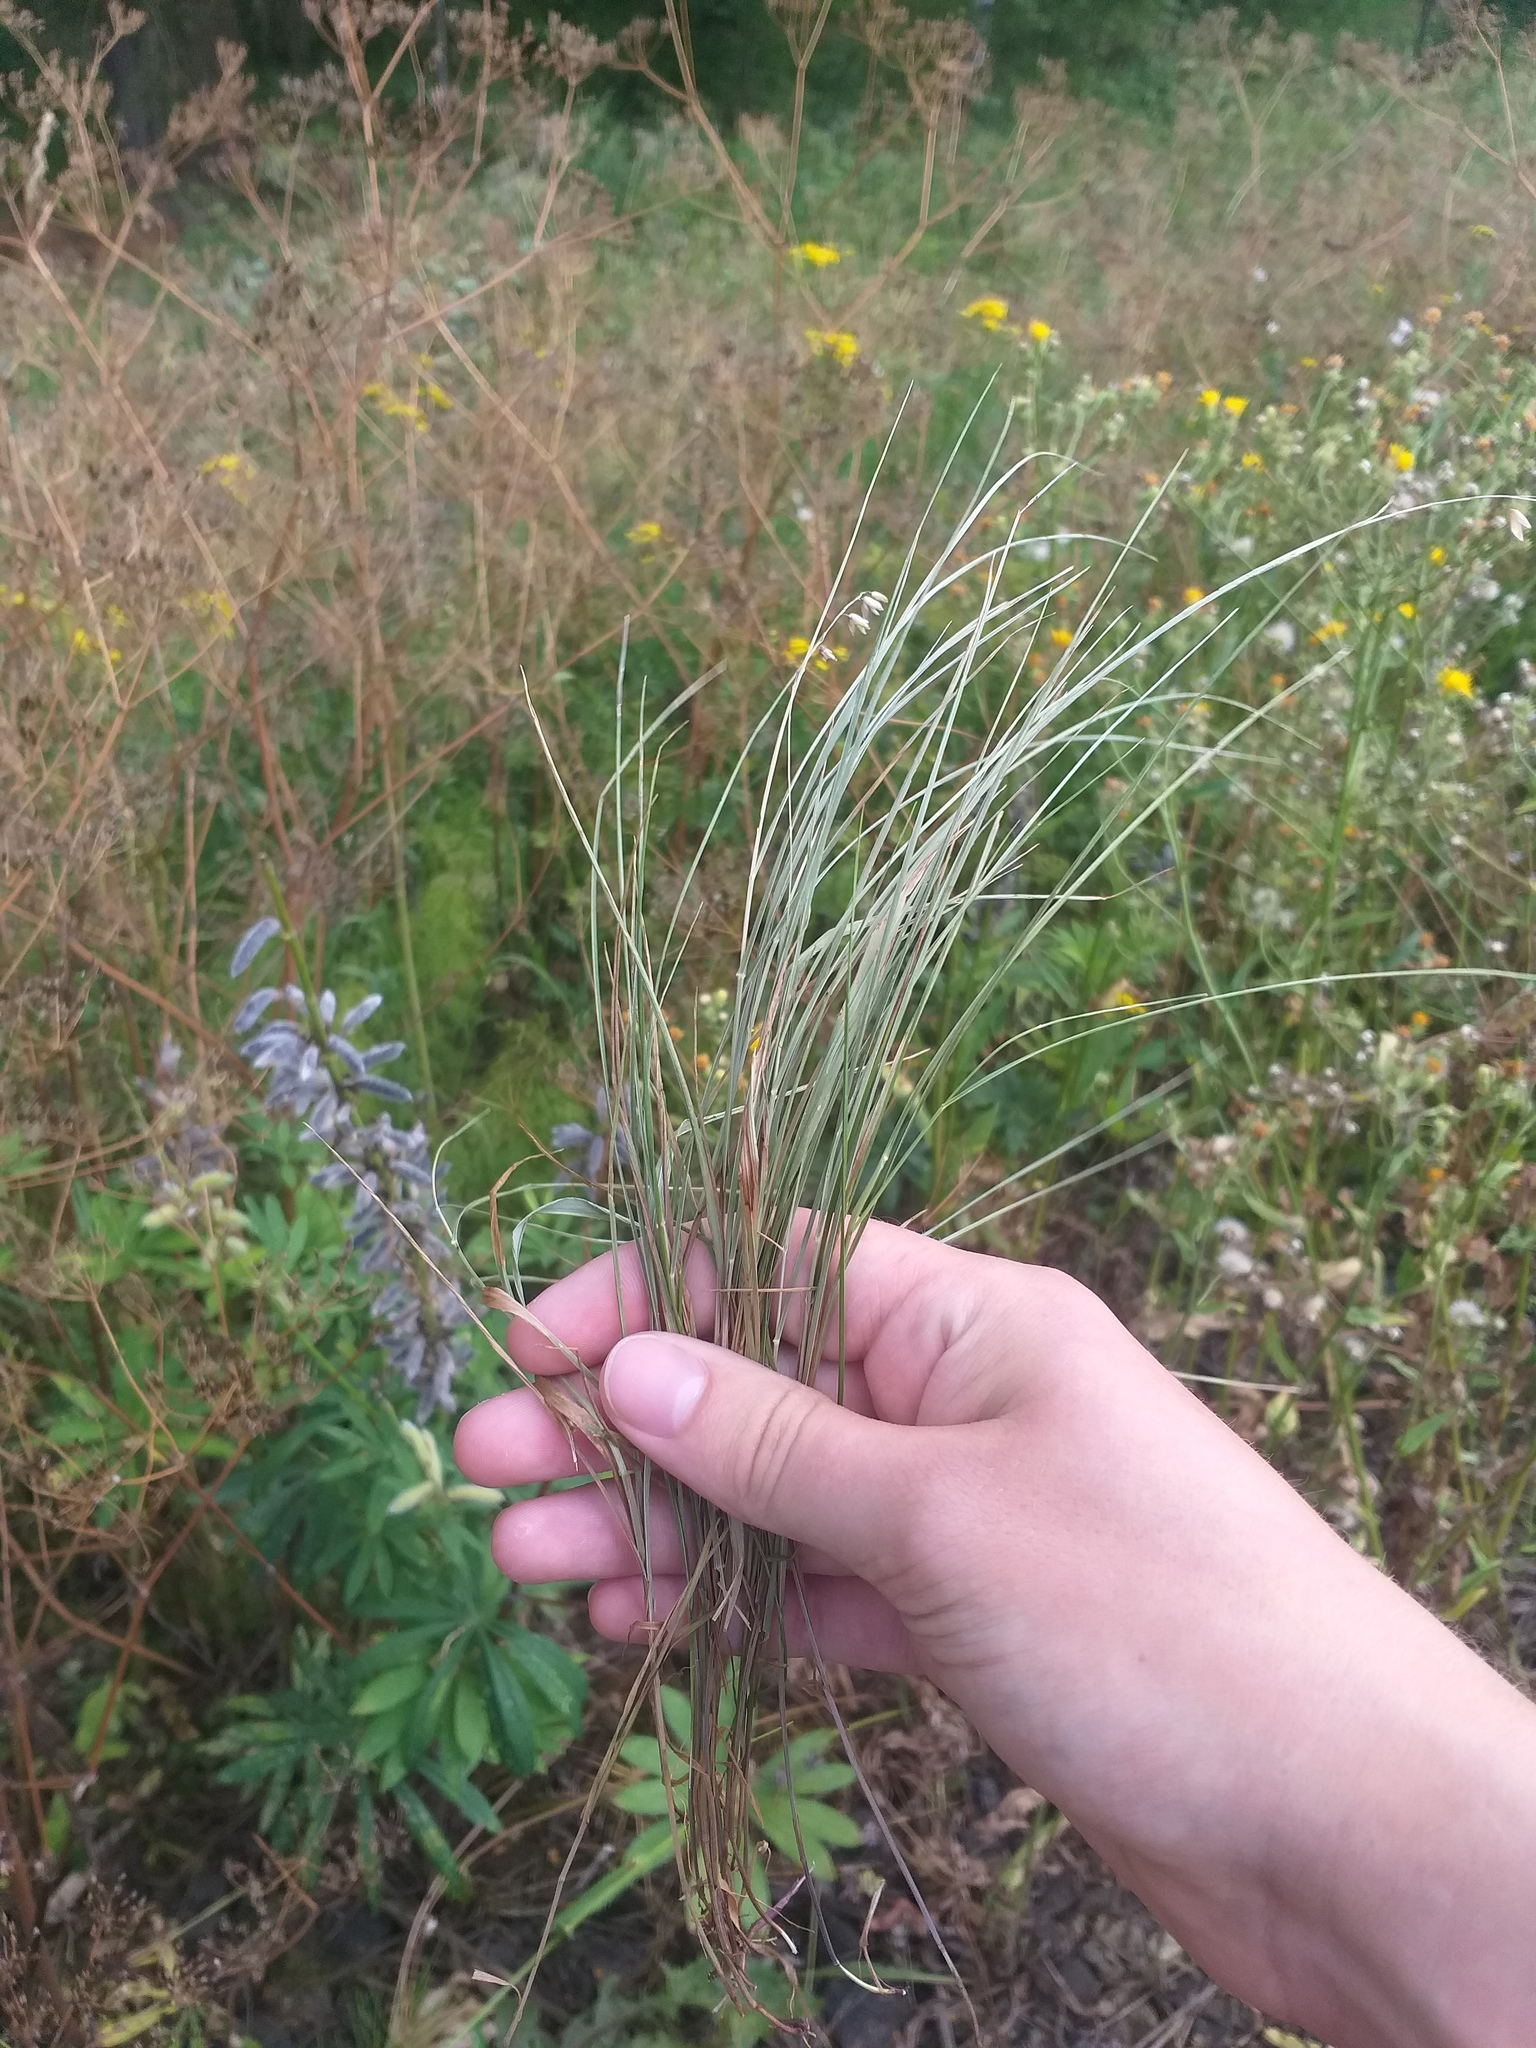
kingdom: Plantae
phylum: Tracheophyta
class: Liliopsida
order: Poales
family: Poaceae
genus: Melica
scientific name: Melica nutans
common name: Mountain melick
